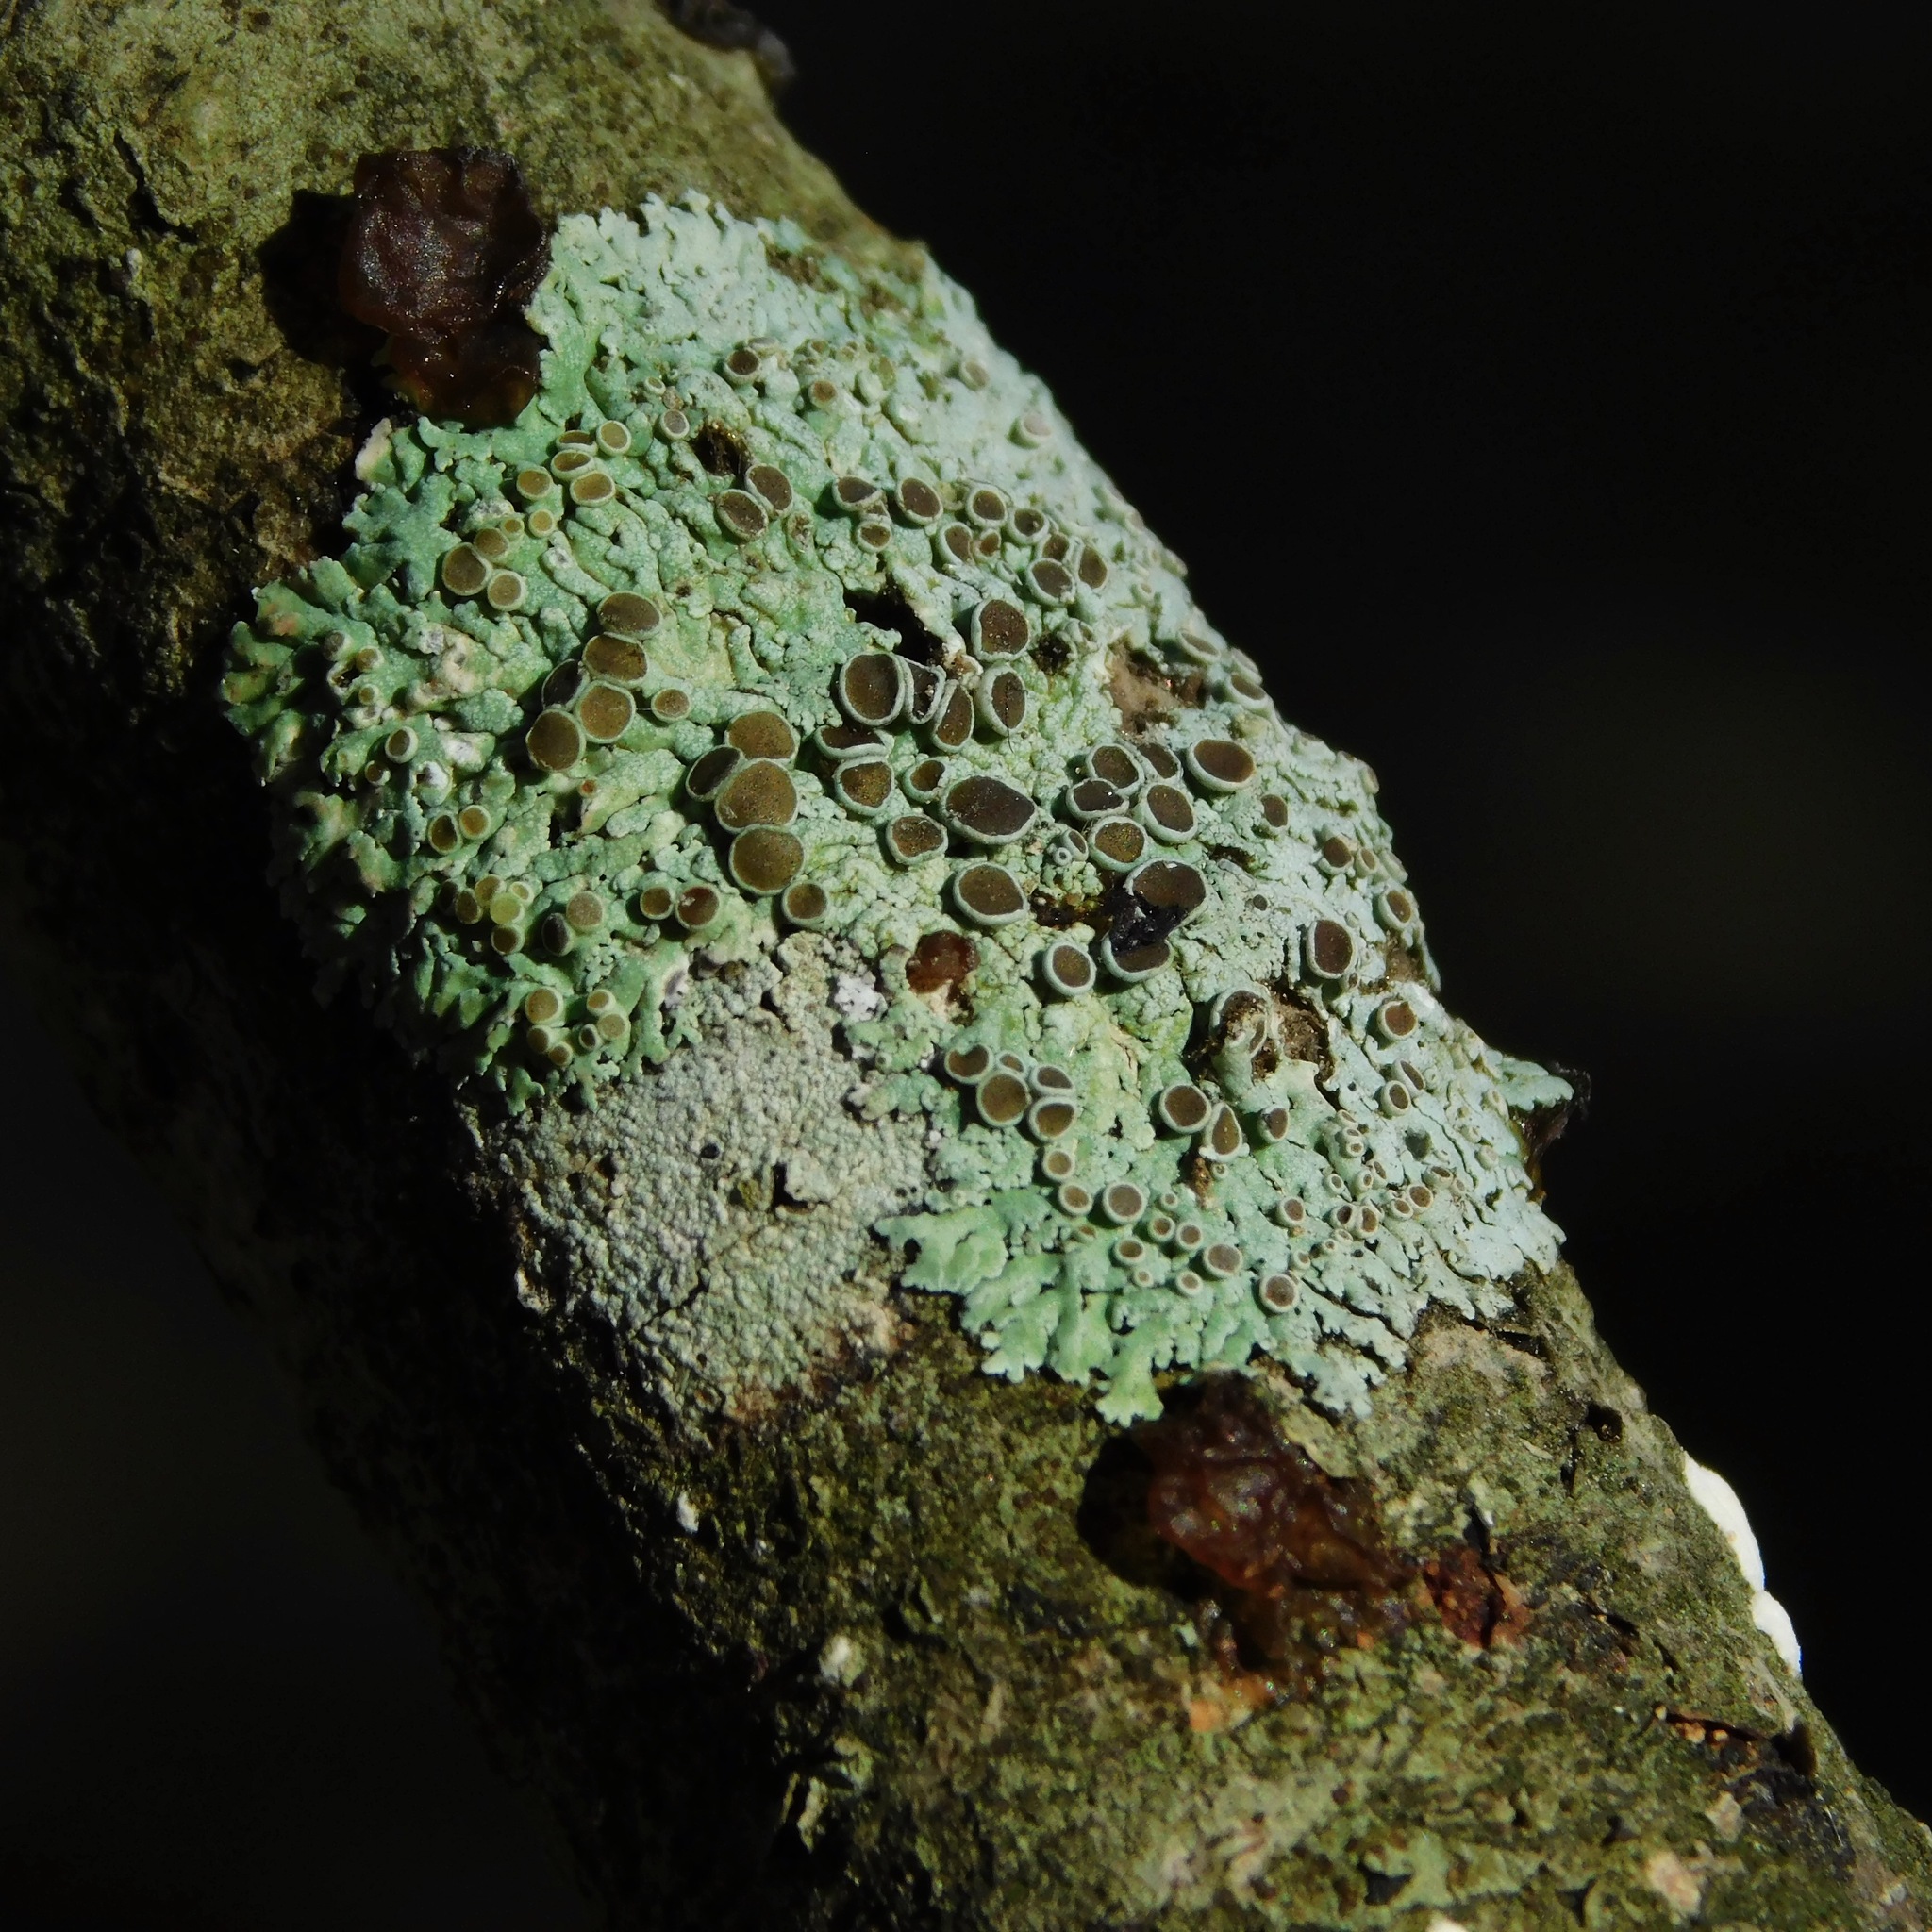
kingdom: Fungi
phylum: Ascomycota
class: Lecanoromycetes
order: Caliciales
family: Physciaceae
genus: Physcia
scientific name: Physcia stellaris
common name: Star rosette lichen
